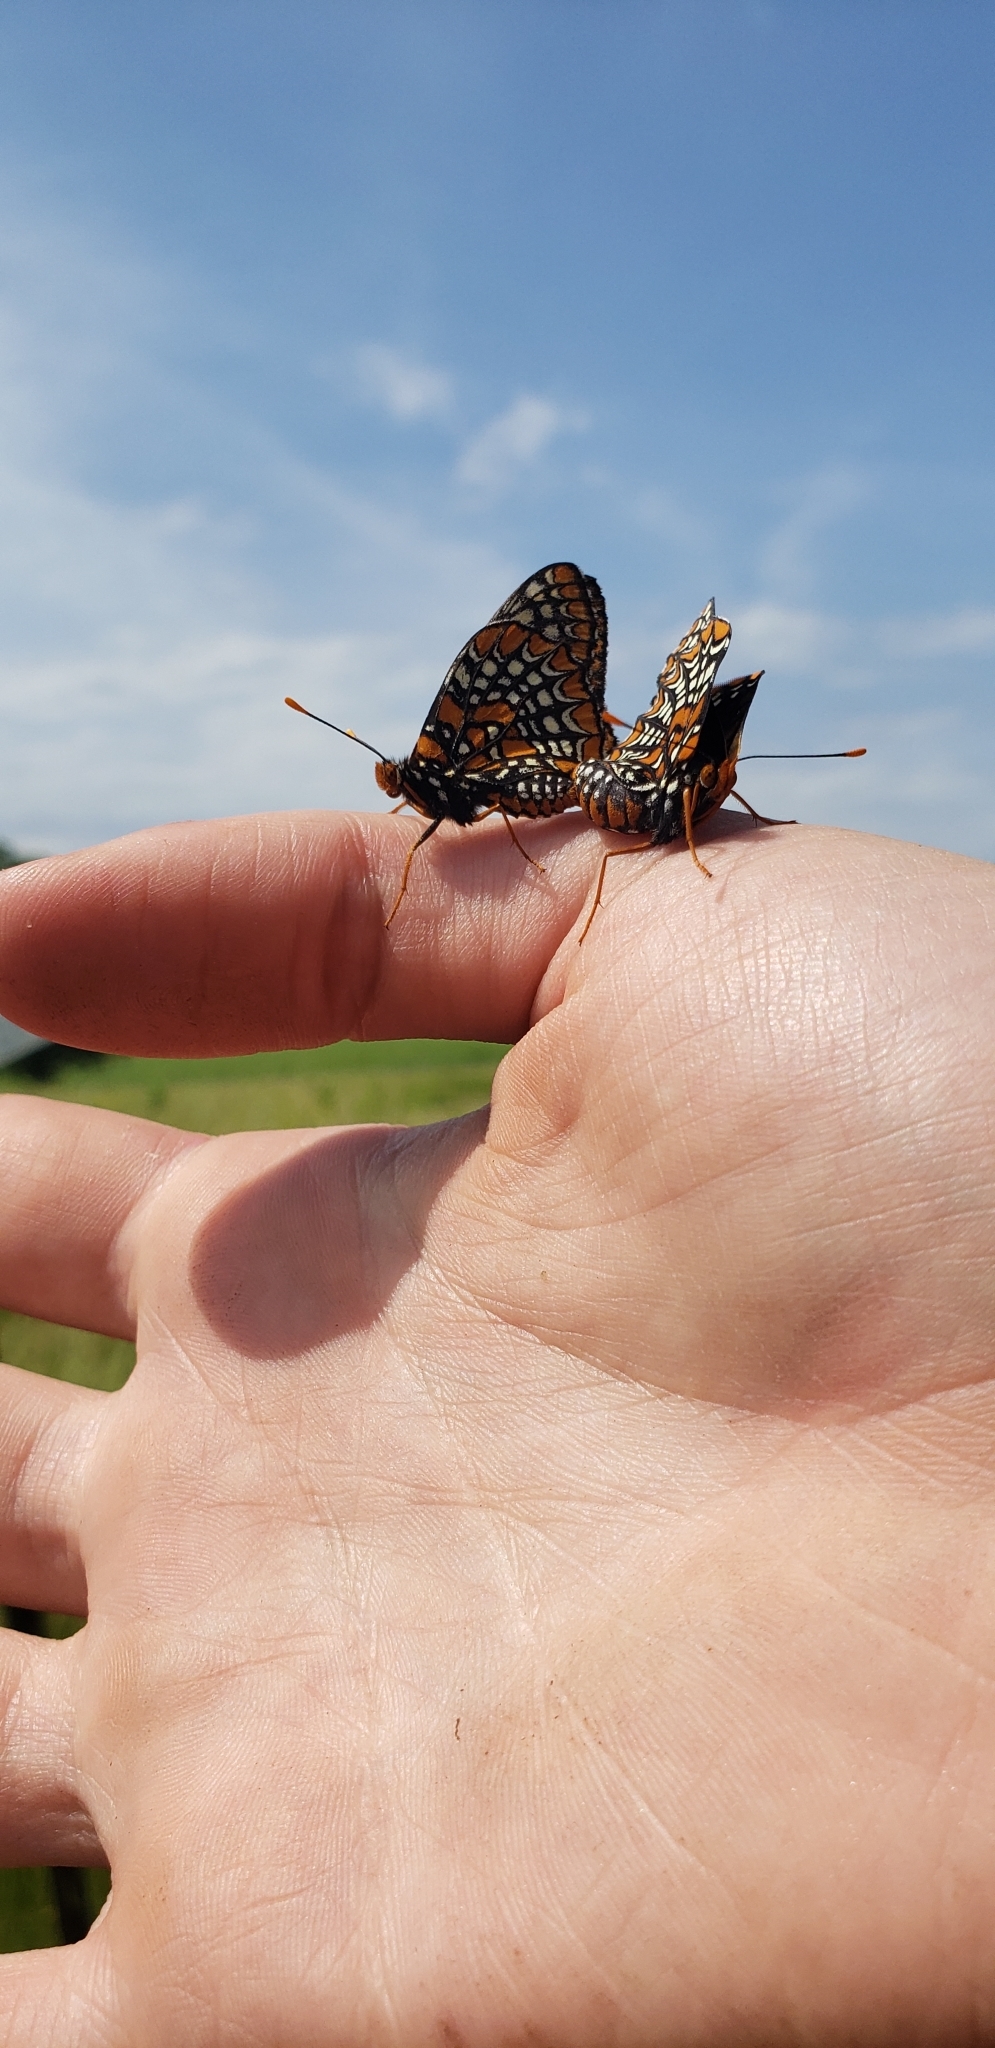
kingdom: Animalia
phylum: Arthropoda
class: Insecta
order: Lepidoptera
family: Nymphalidae
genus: Euphydryas
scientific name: Euphydryas phaeton
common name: Baltimore checkerspot
